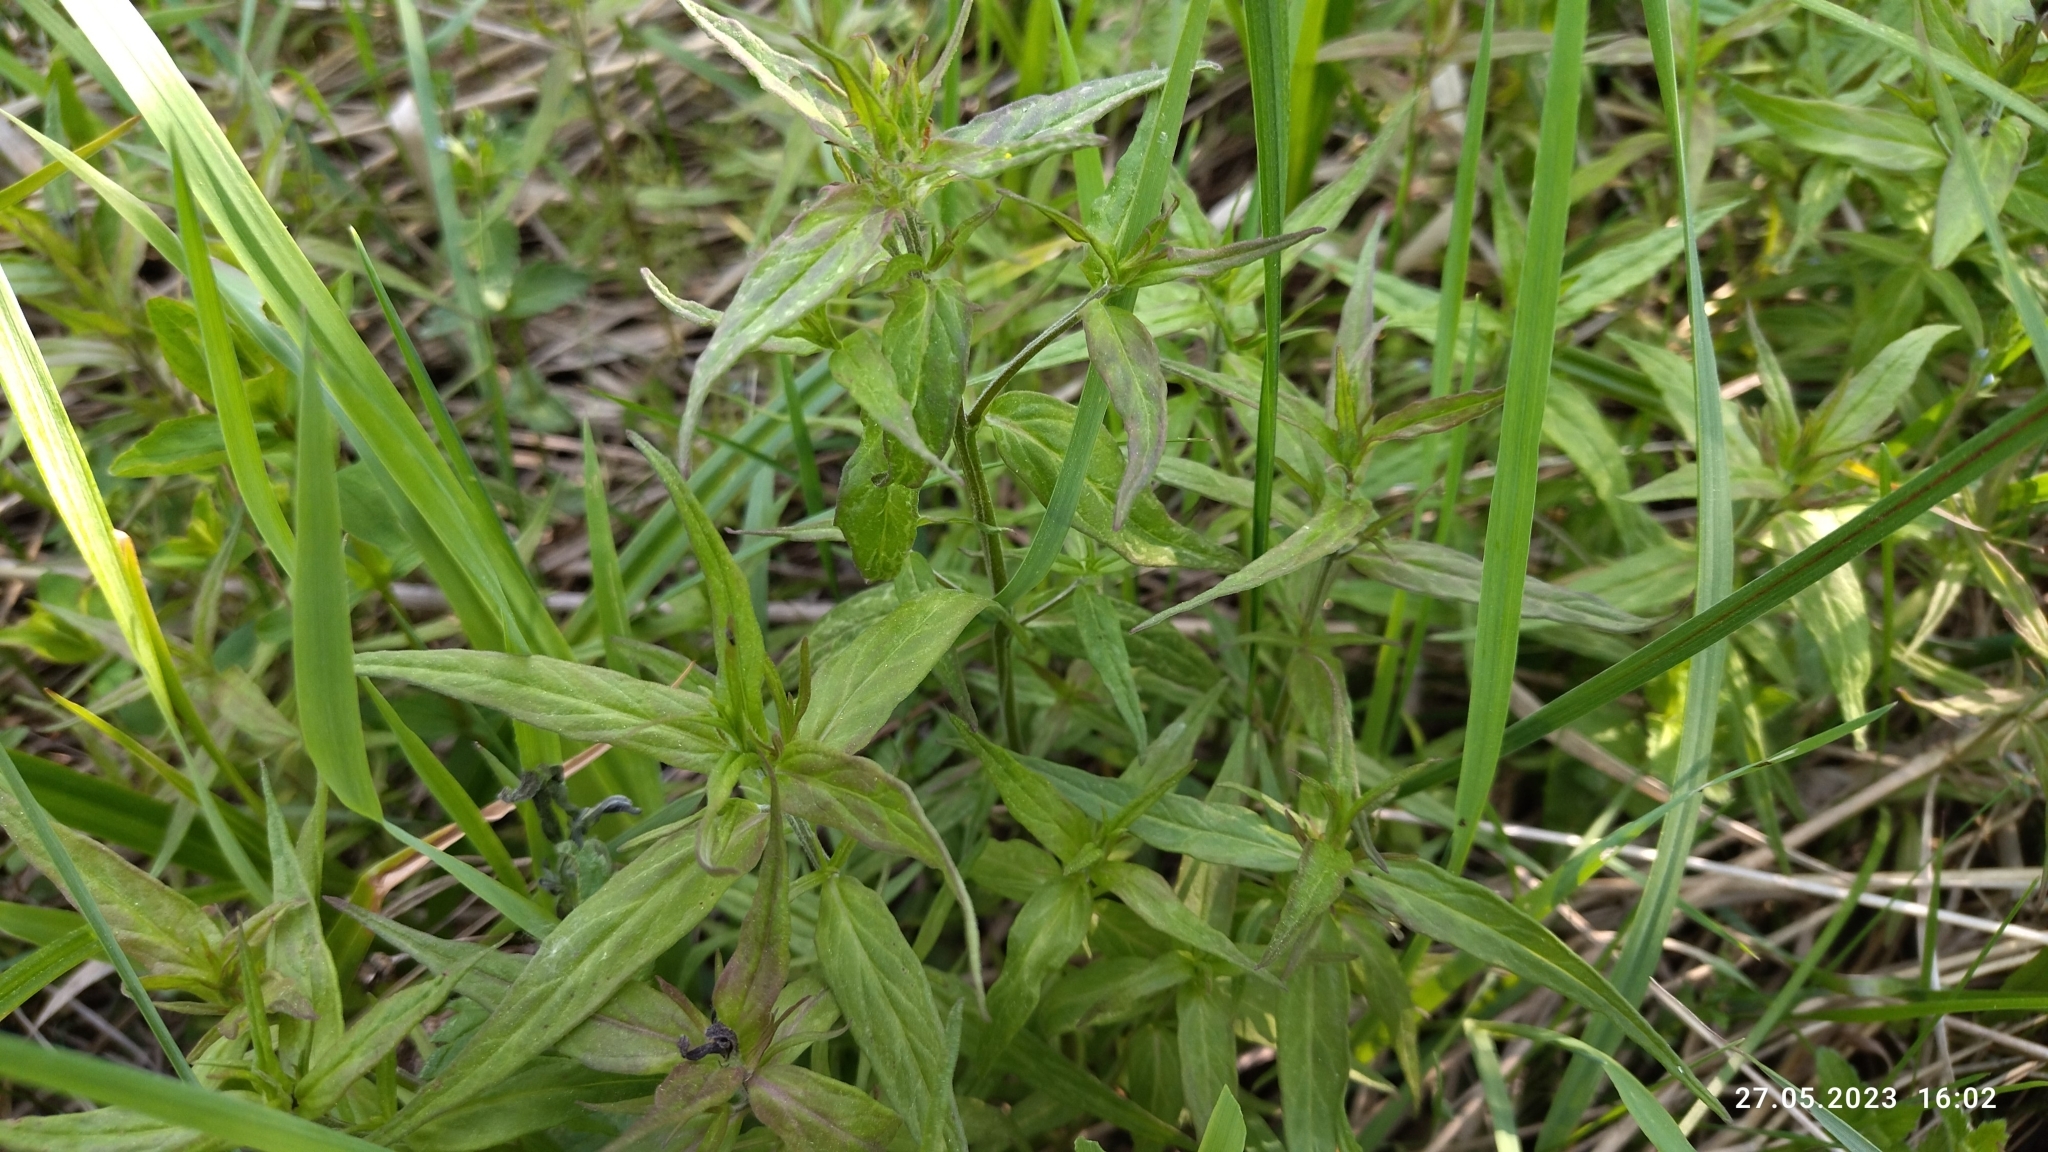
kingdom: Plantae
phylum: Tracheophyta
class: Magnoliopsida
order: Lamiales
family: Orobanchaceae
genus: Melampyrum
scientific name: Melampyrum nemorosum
